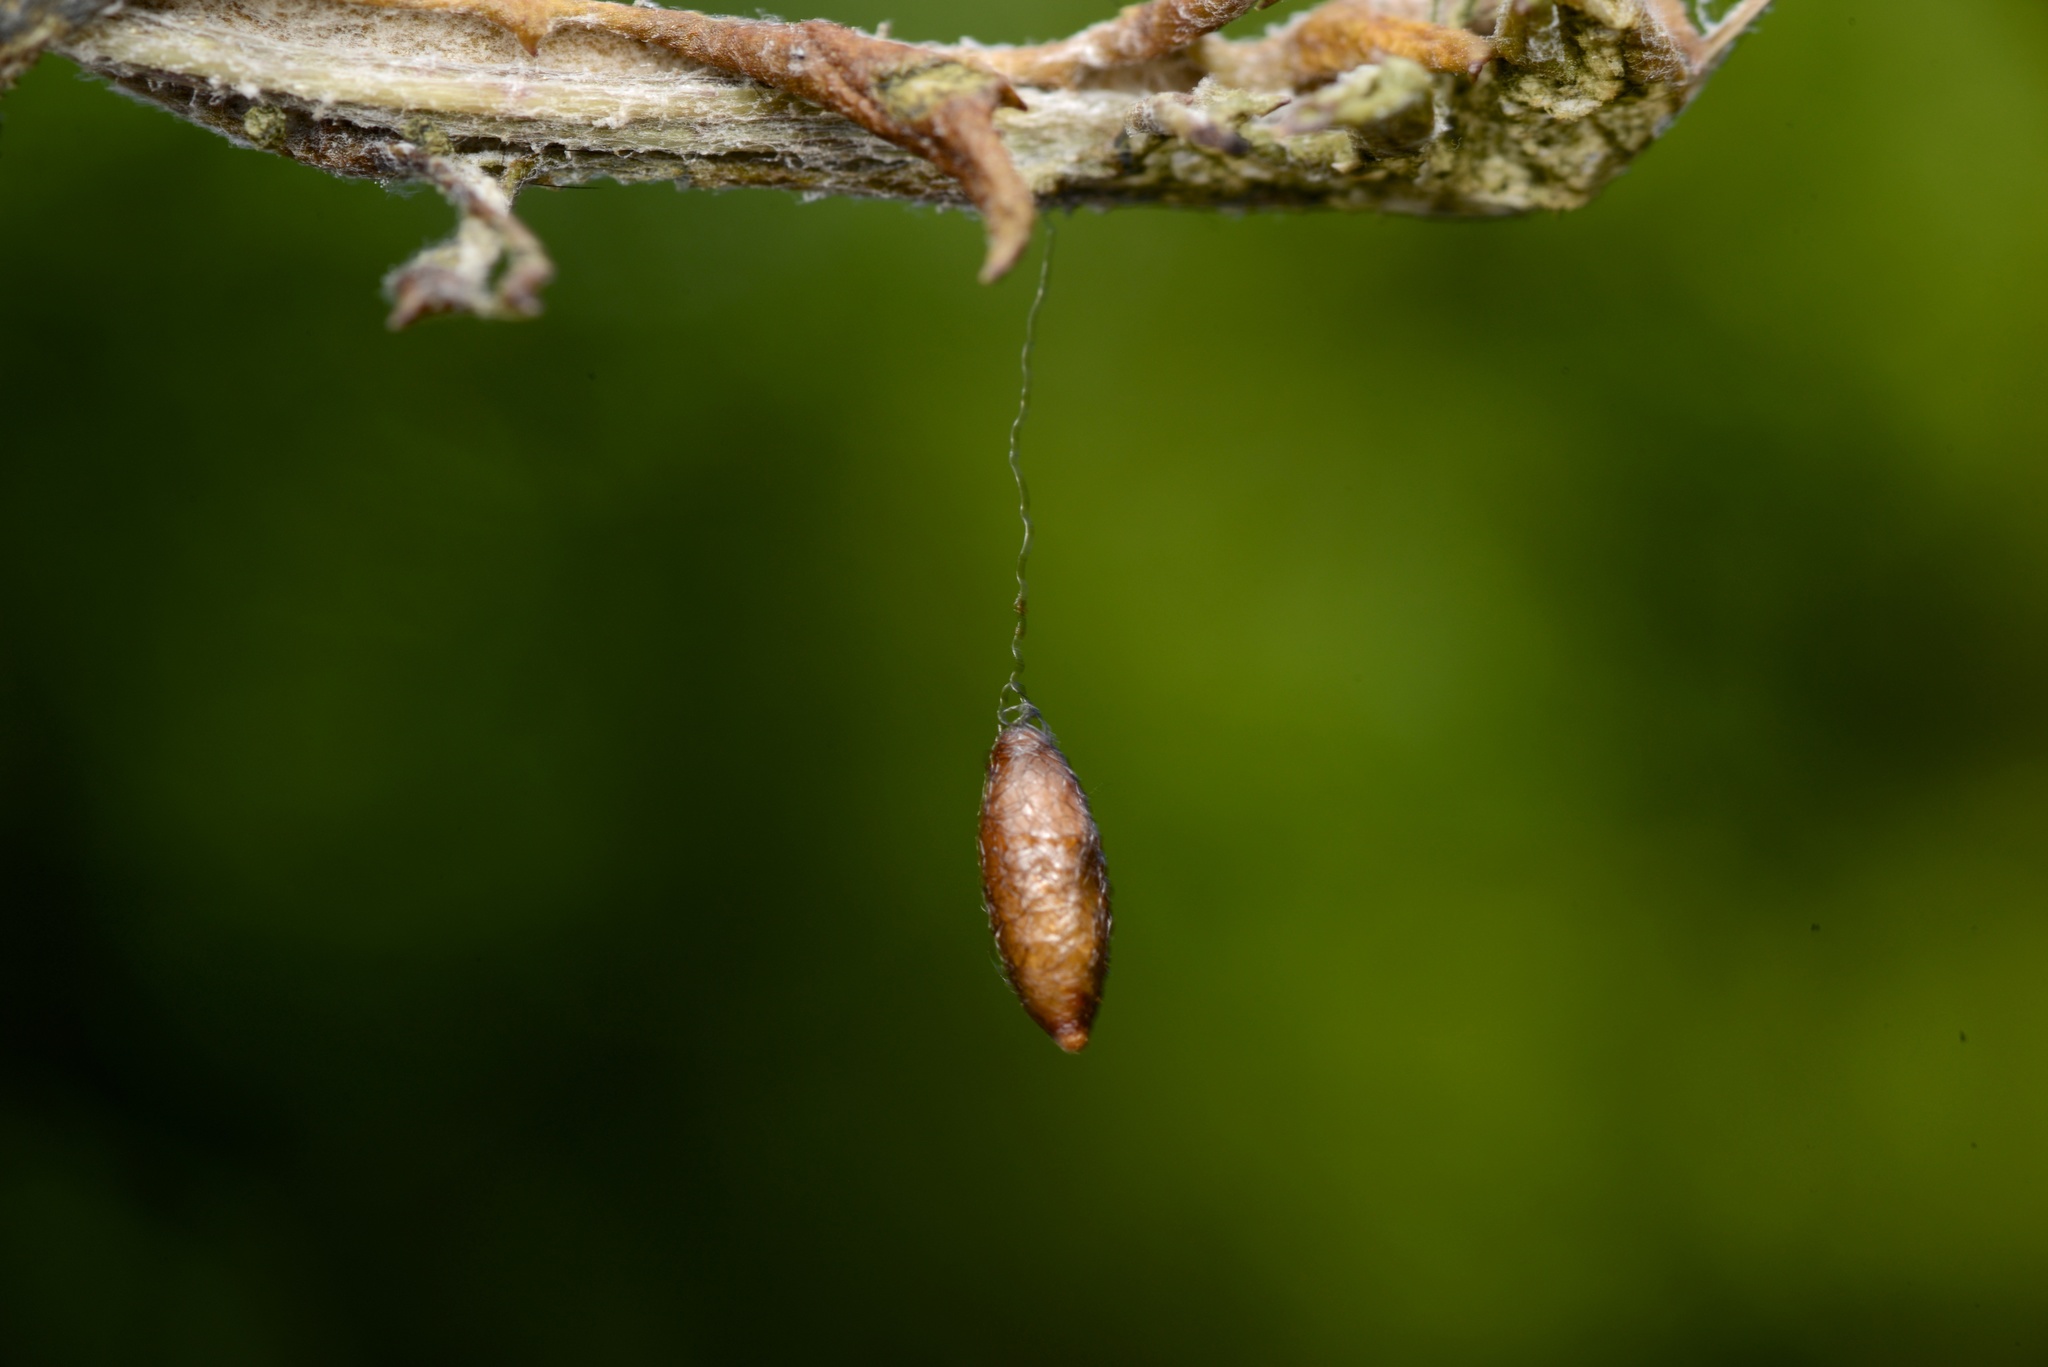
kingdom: Animalia
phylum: Arthropoda
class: Insecta
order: Hymenoptera
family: Braconidae
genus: Meteorus
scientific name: Meteorus pulchricornis
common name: Braconid wasp
